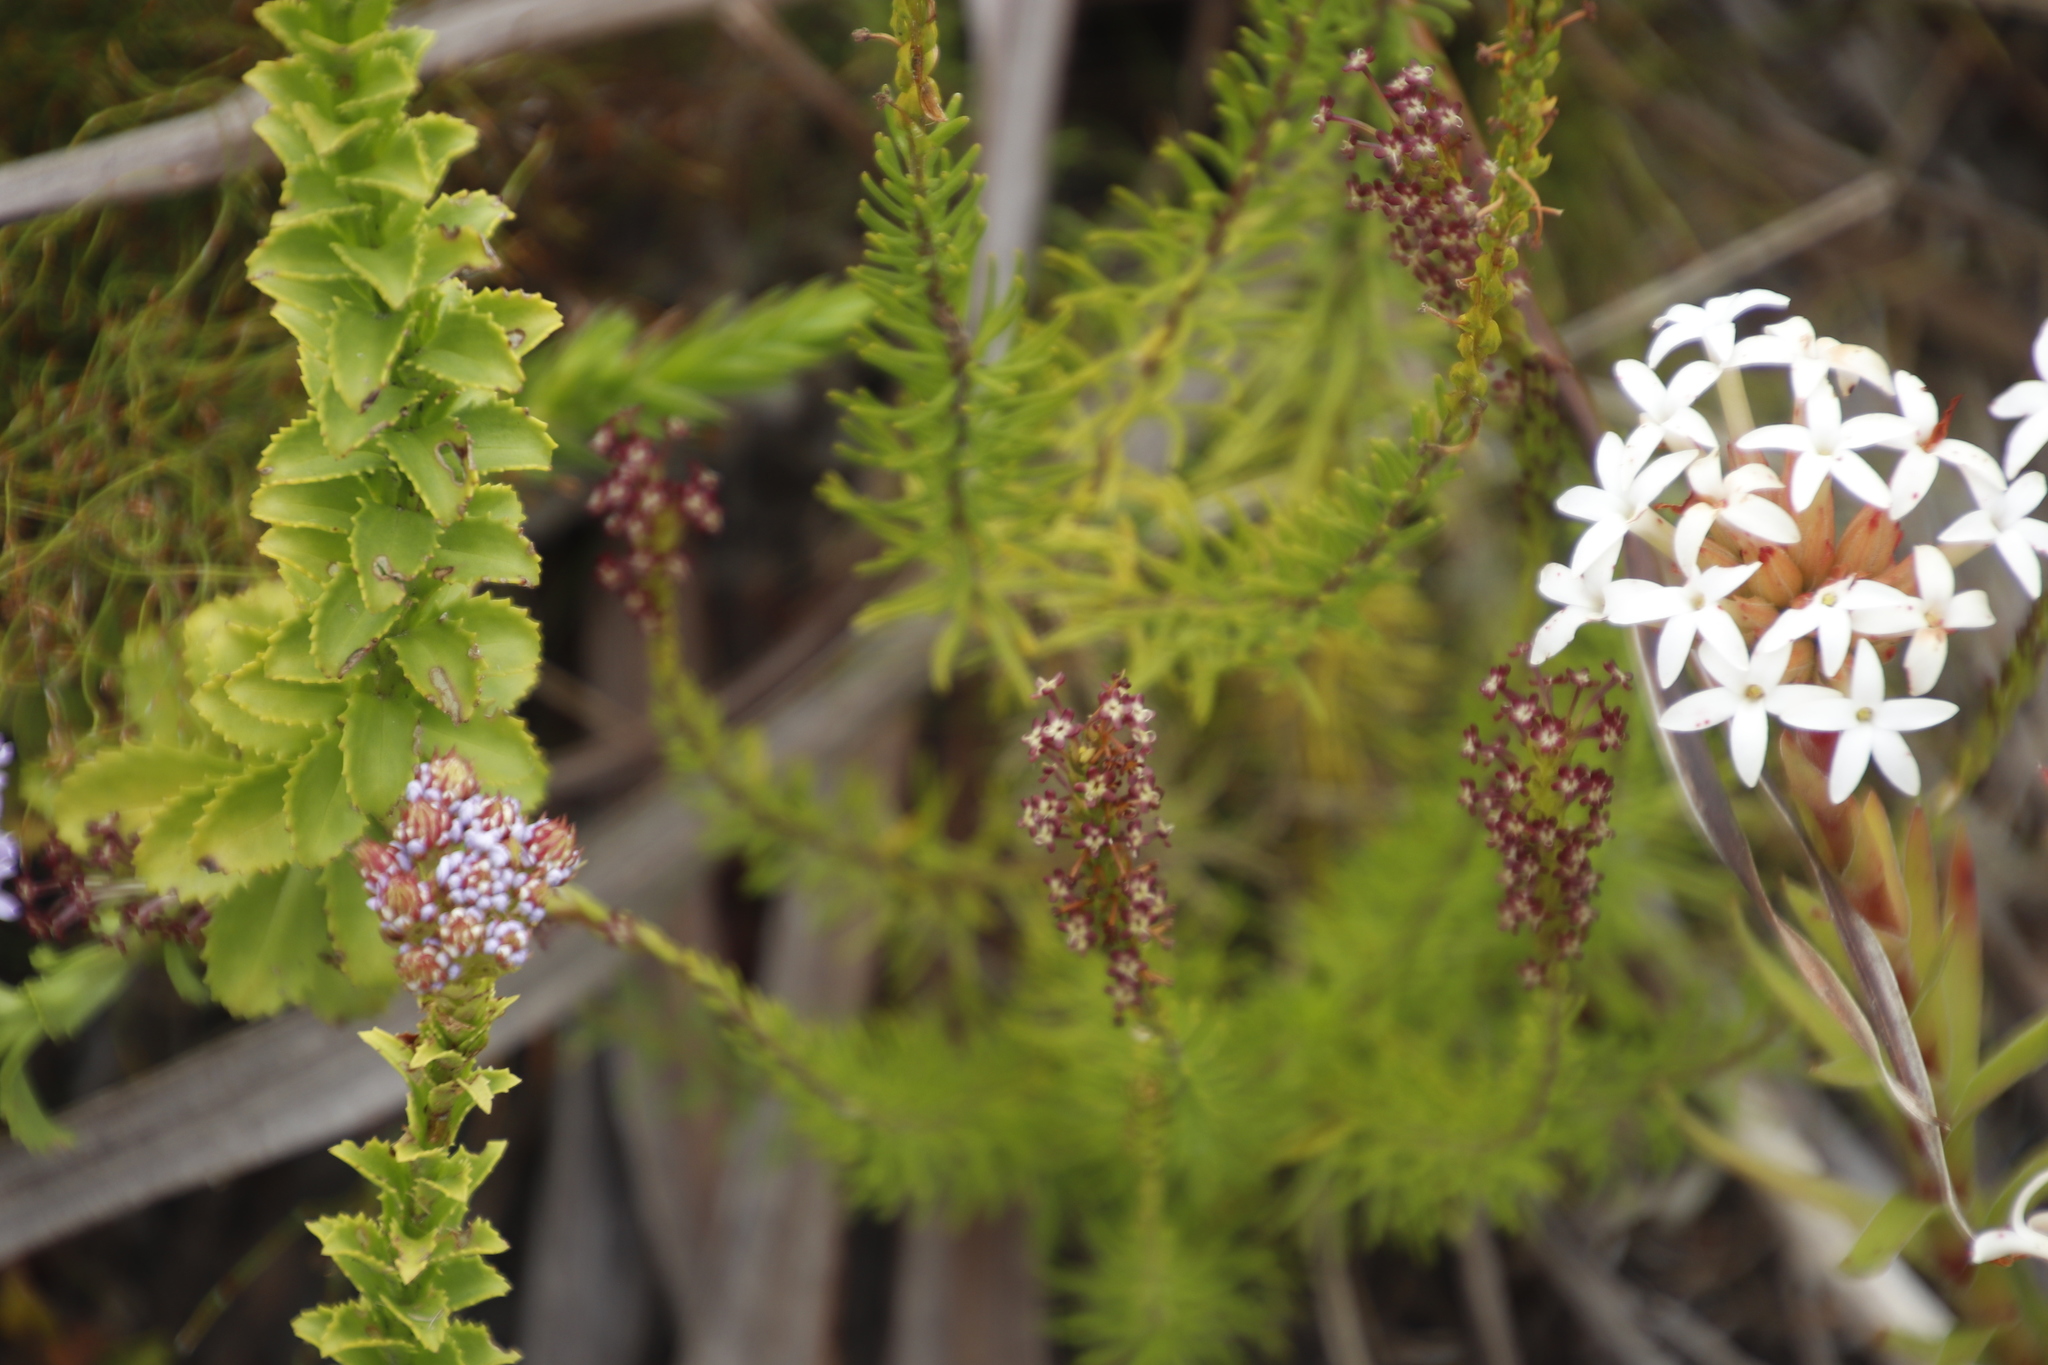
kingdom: Plantae
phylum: Tracheophyta
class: Magnoliopsida
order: Lamiales
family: Scrophulariaceae
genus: Microdon
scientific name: Microdon dubius
